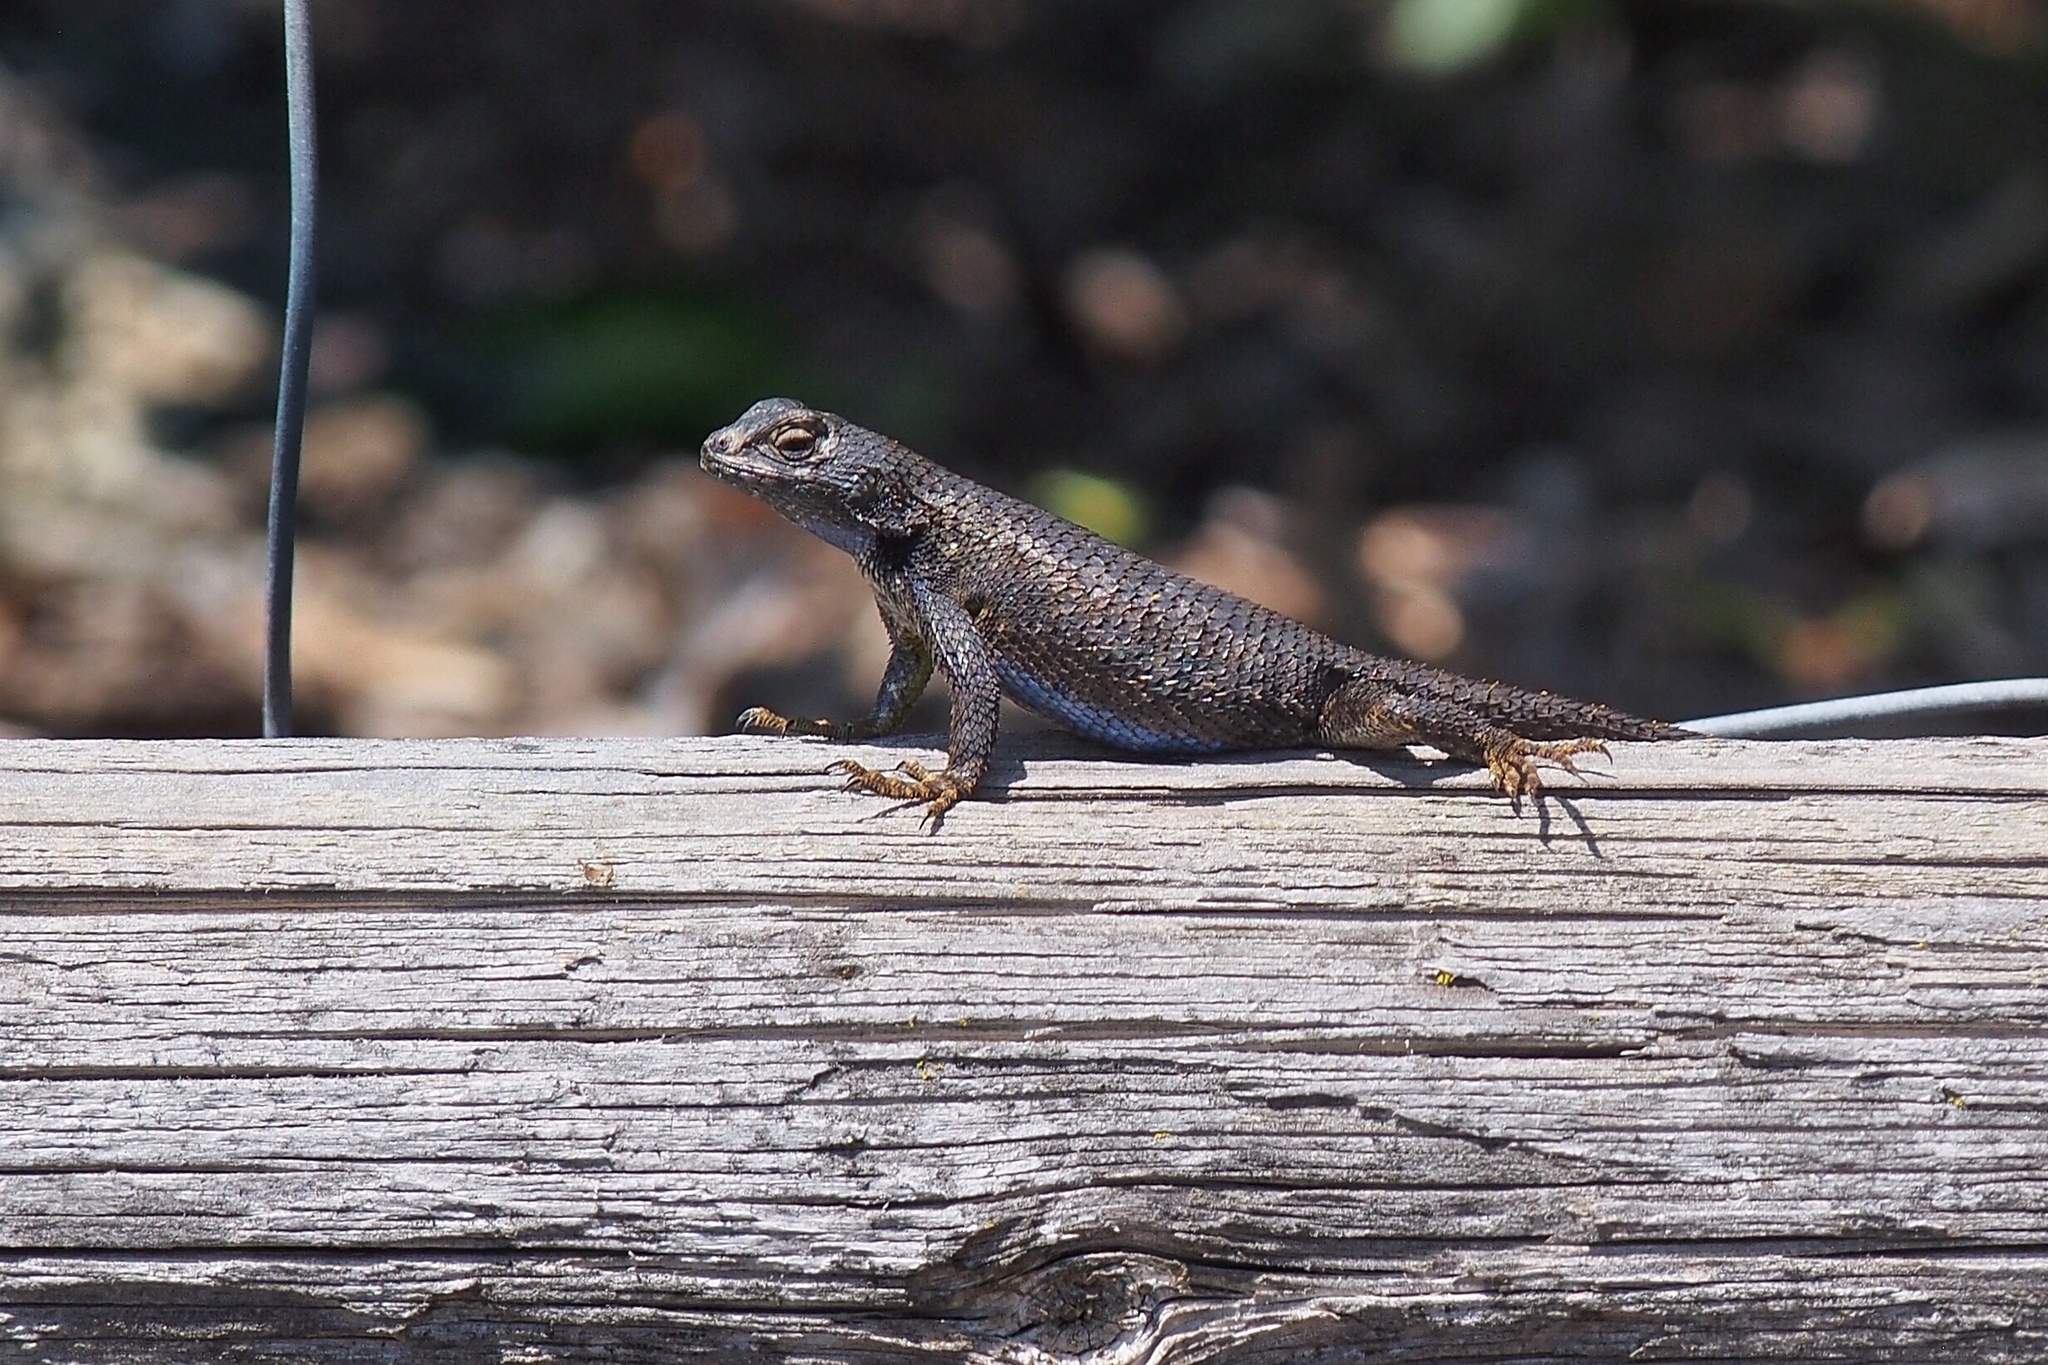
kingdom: Animalia
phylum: Chordata
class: Squamata
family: Phrynosomatidae
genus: Sceloporus
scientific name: Sceloporus occidentalis
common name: Western fence lizard
